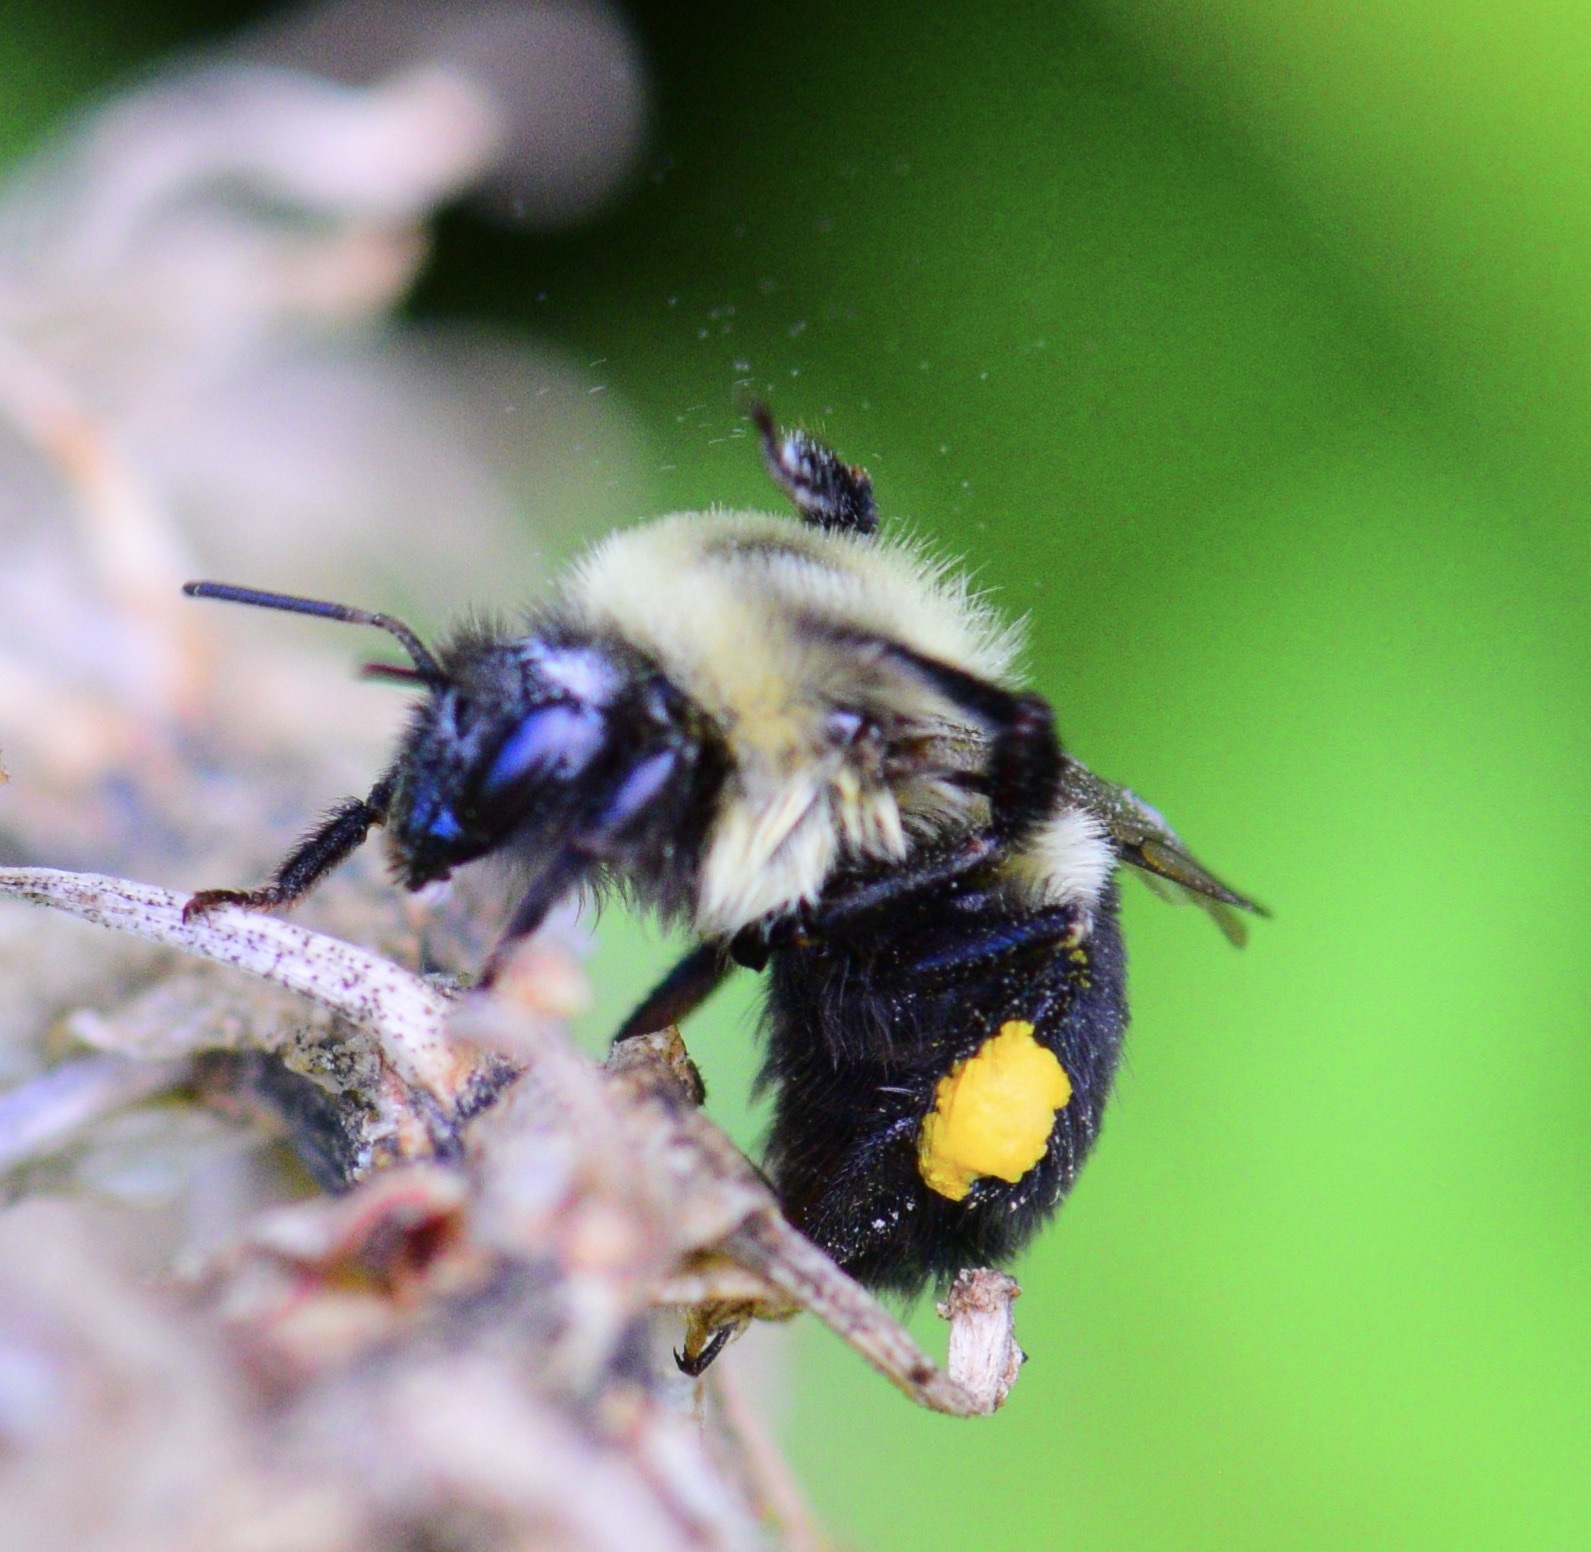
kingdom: Animalia
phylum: Arthropoda
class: Insecta
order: Hymenoptera
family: Apidae
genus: Bombus
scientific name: Bombus impatiens
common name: Common eastern bumble bee
